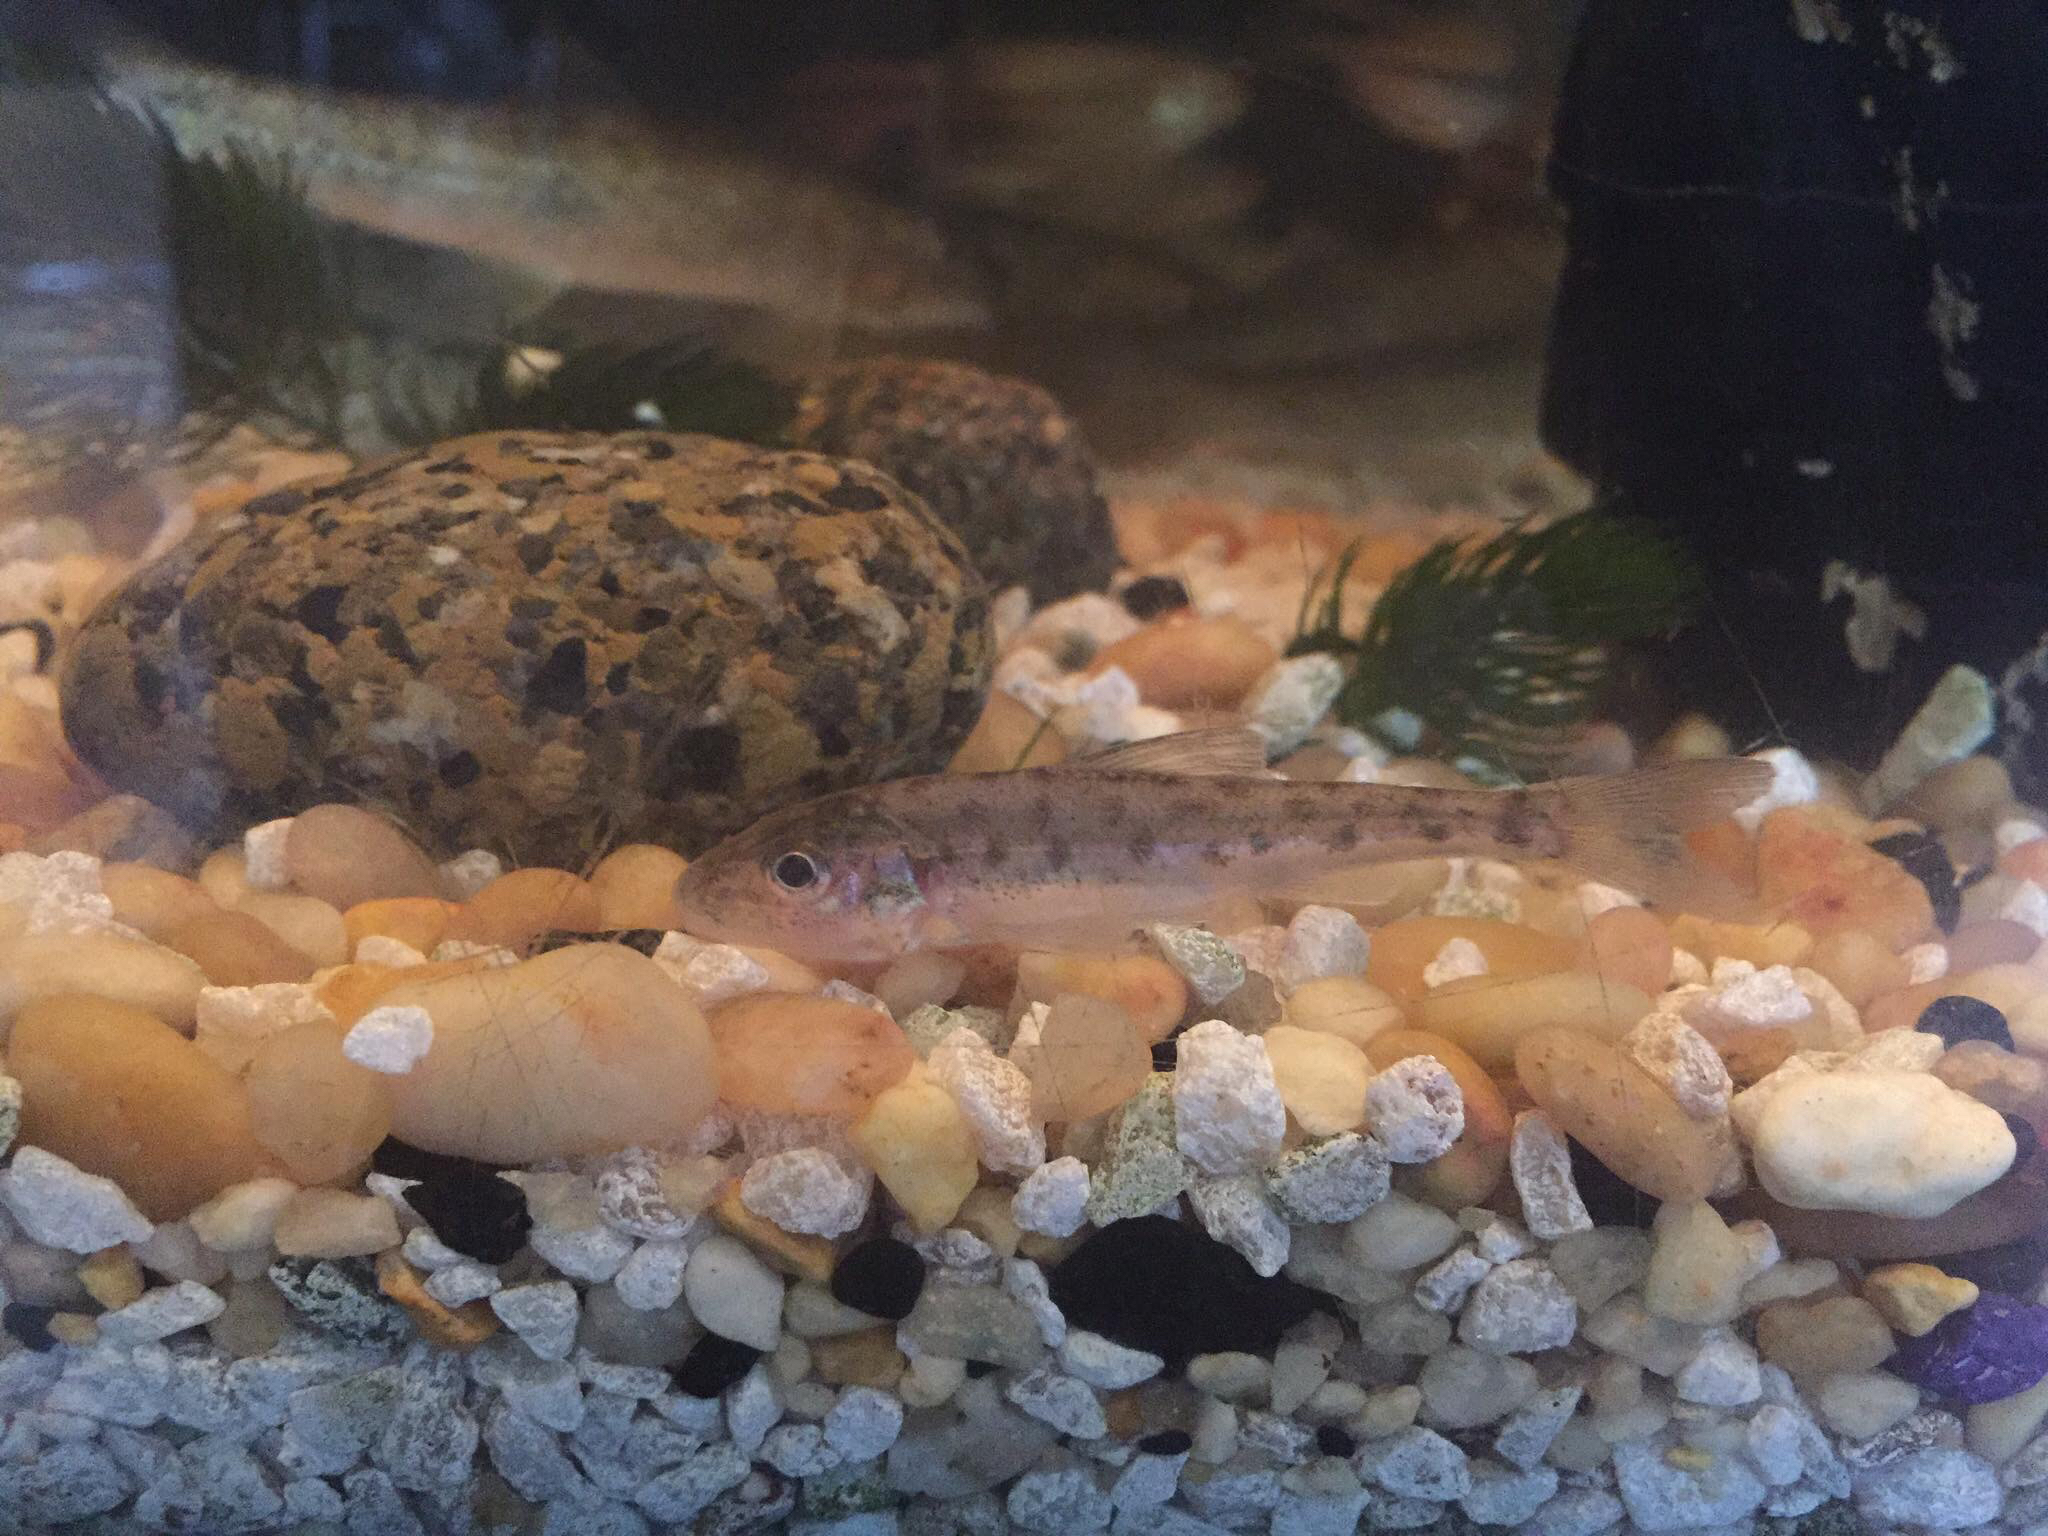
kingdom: Animalia
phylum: Chordata
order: Percopsiformes
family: Percopsidae
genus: Percopsis
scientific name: Percopsis omiscomaycus
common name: Trout-perch
